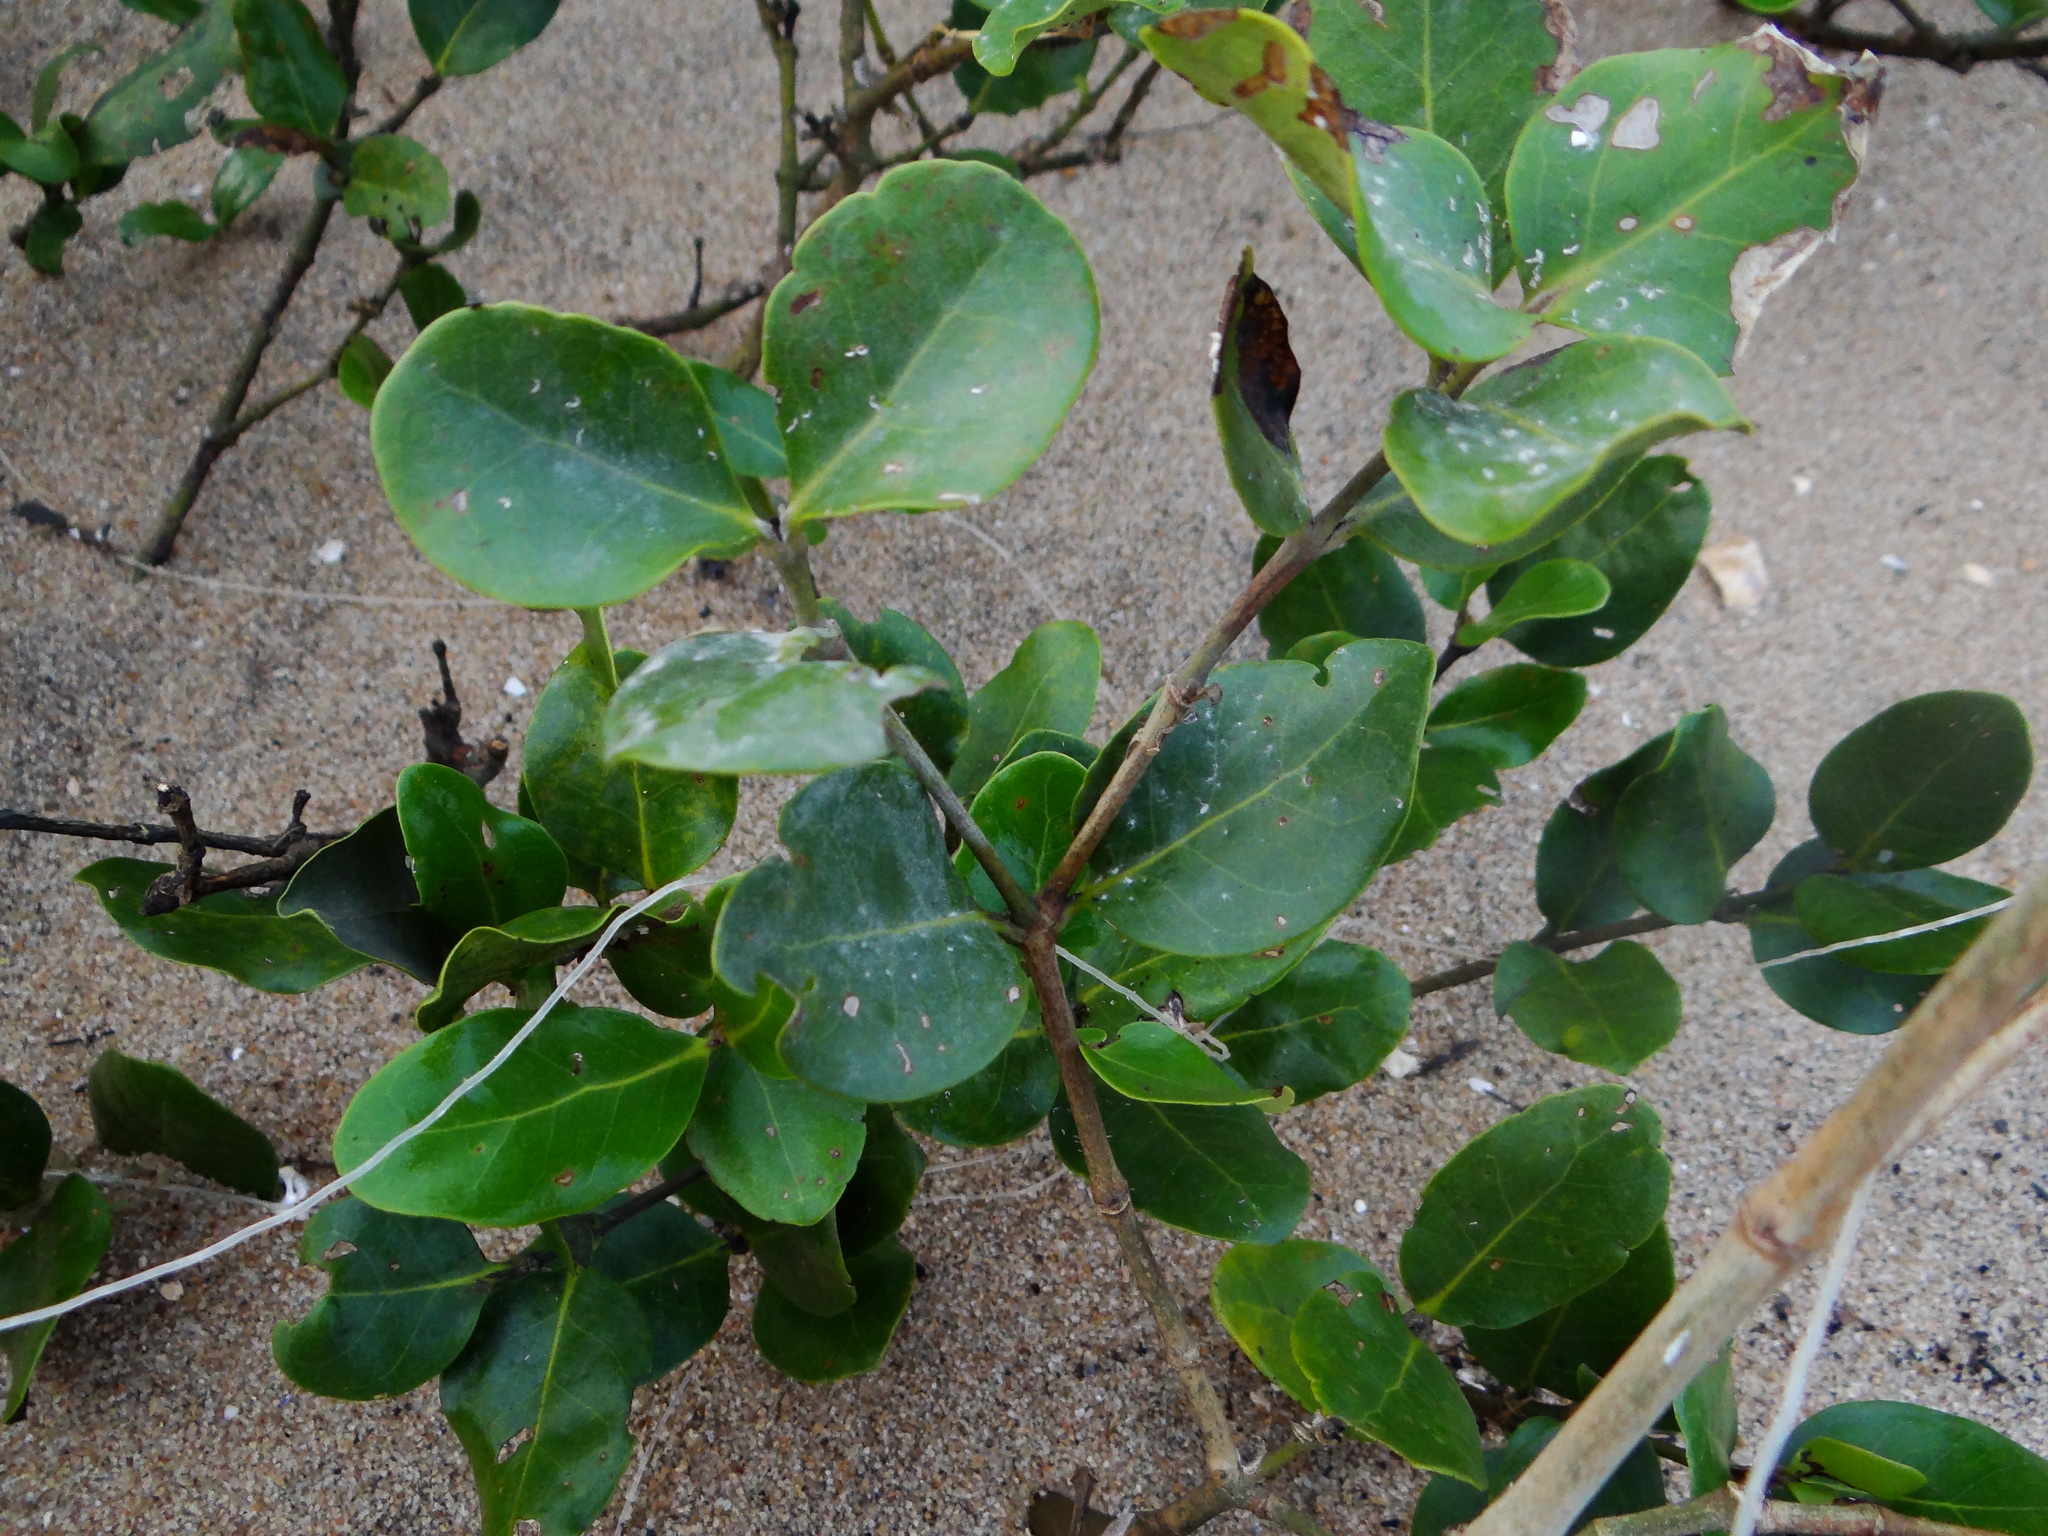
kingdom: Plantae
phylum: Tracheophyta
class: Magnoliopsida
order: Lamiales
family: Acanthaceae
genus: Avicennia
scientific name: Avicennia marina
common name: Gray mangrove
